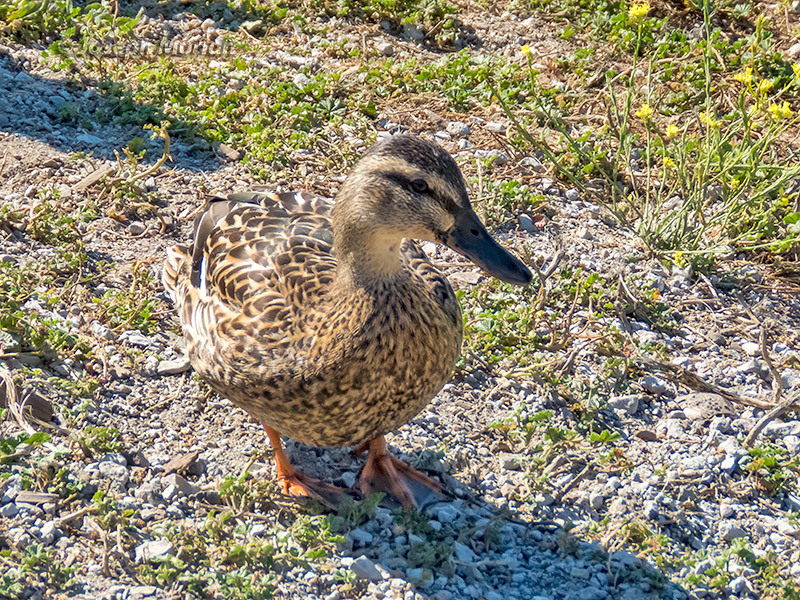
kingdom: Animalia
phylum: Chordata
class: Aves
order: Anseriformes
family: Anatidae
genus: Anas
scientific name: Anas platyrhynchos
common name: Mallard
